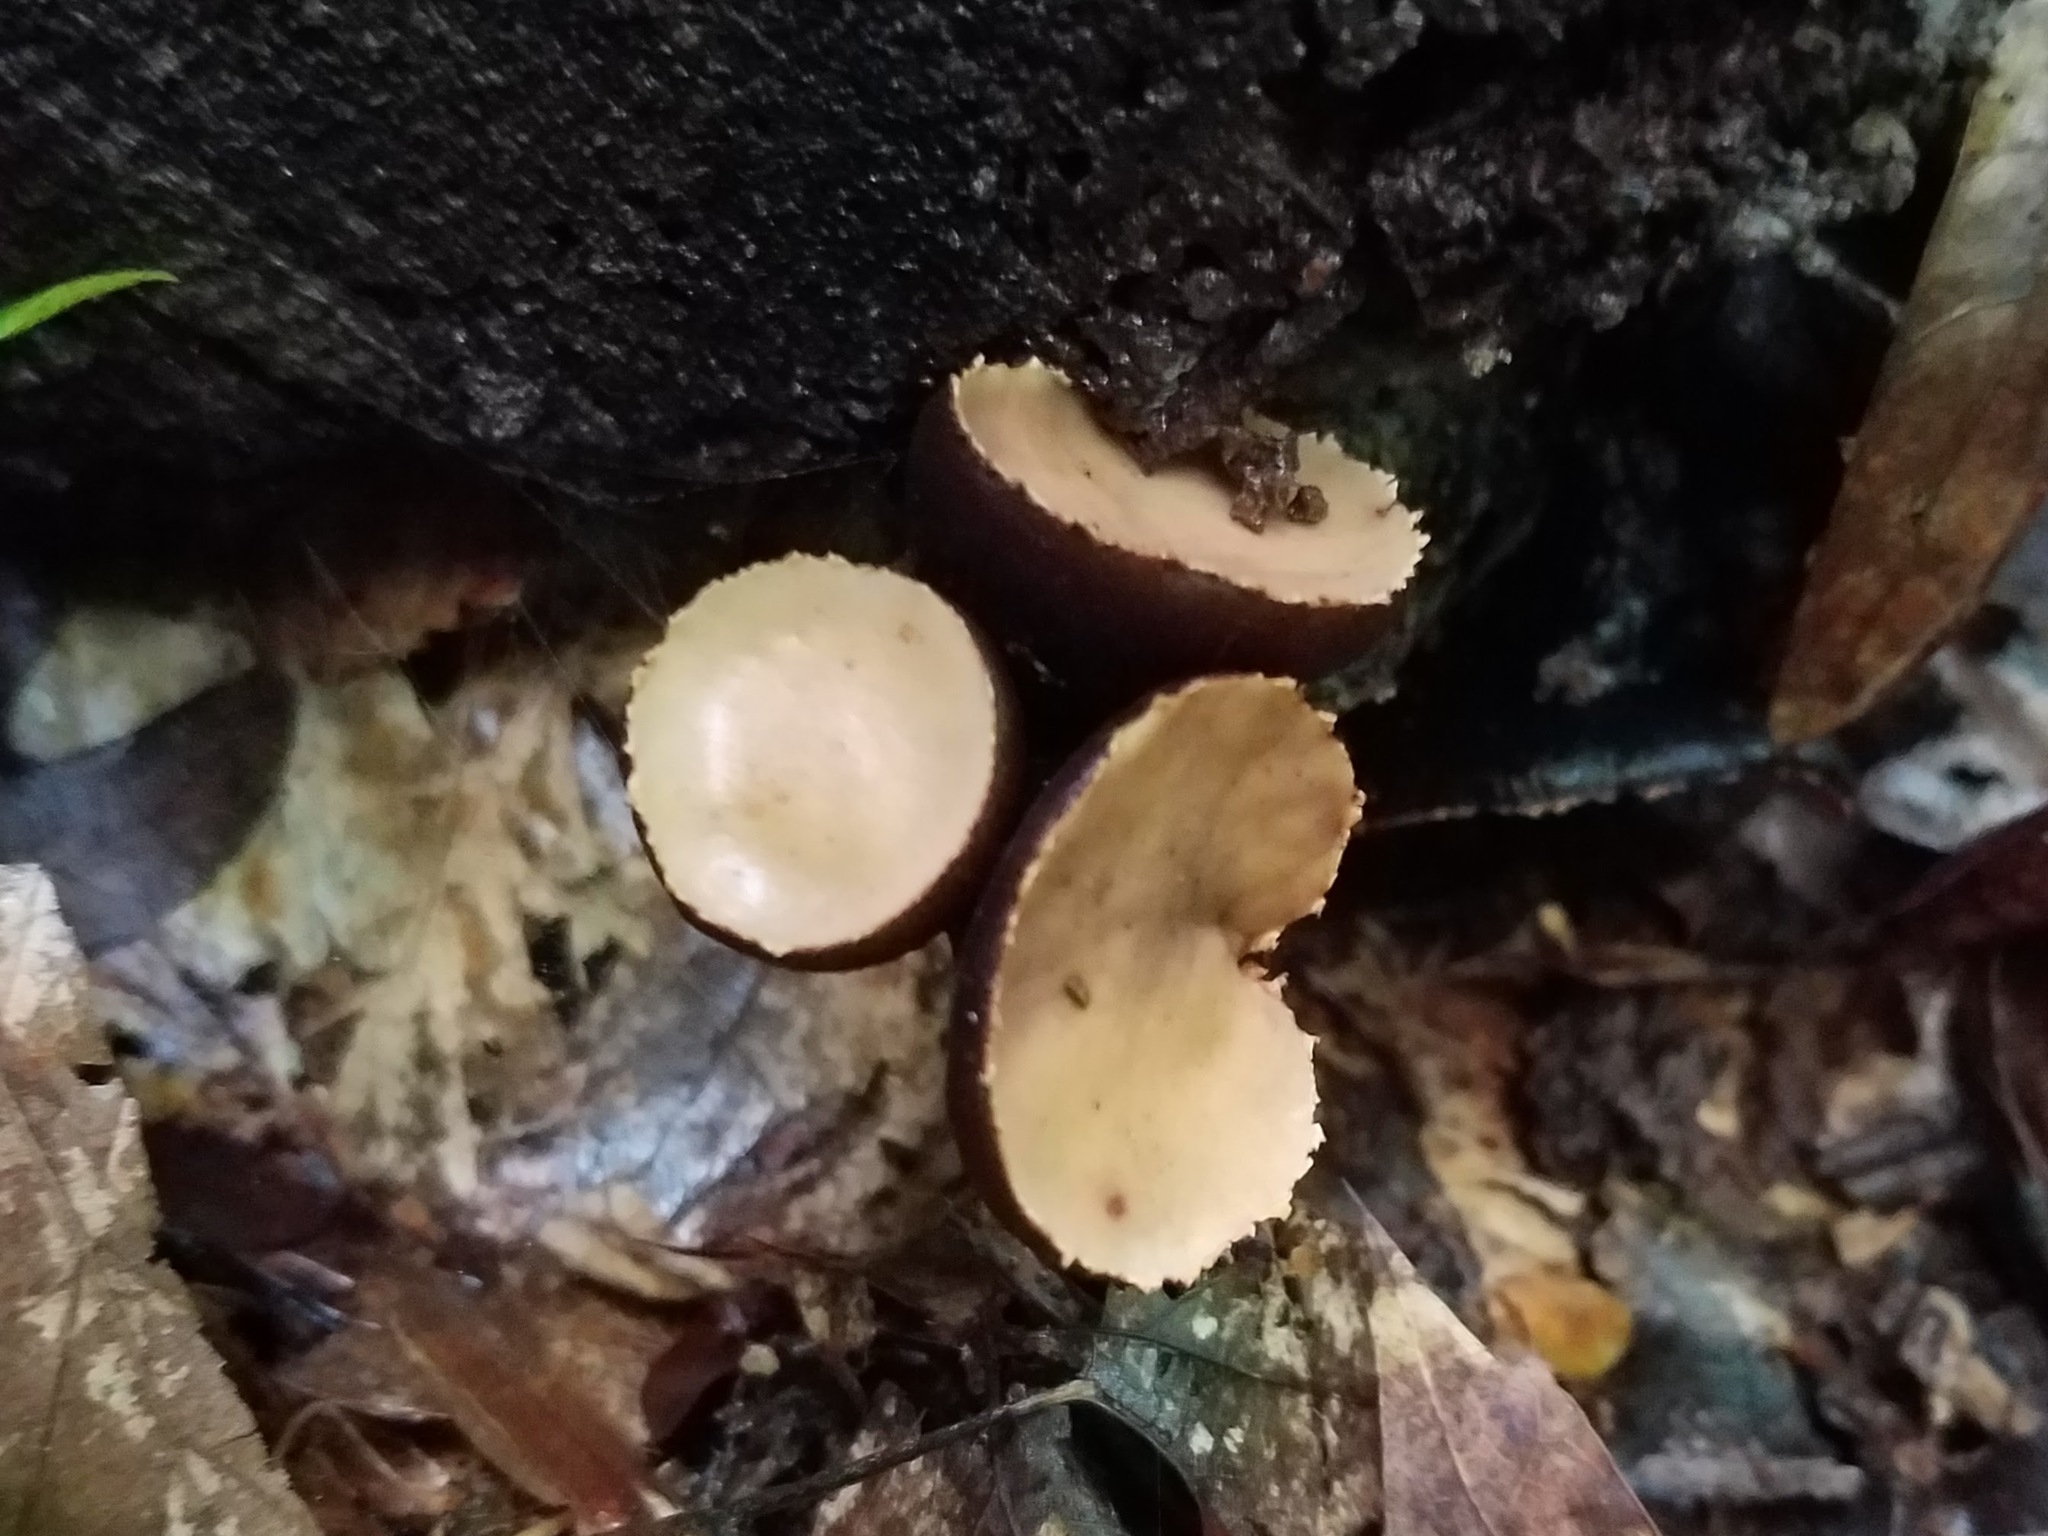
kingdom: Fungi
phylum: Ascomycota
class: Pezizomycetes
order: Pezizales
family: Sarcosomataceae
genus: Galiella
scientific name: Galiella rufa
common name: Hairy rubber cup
